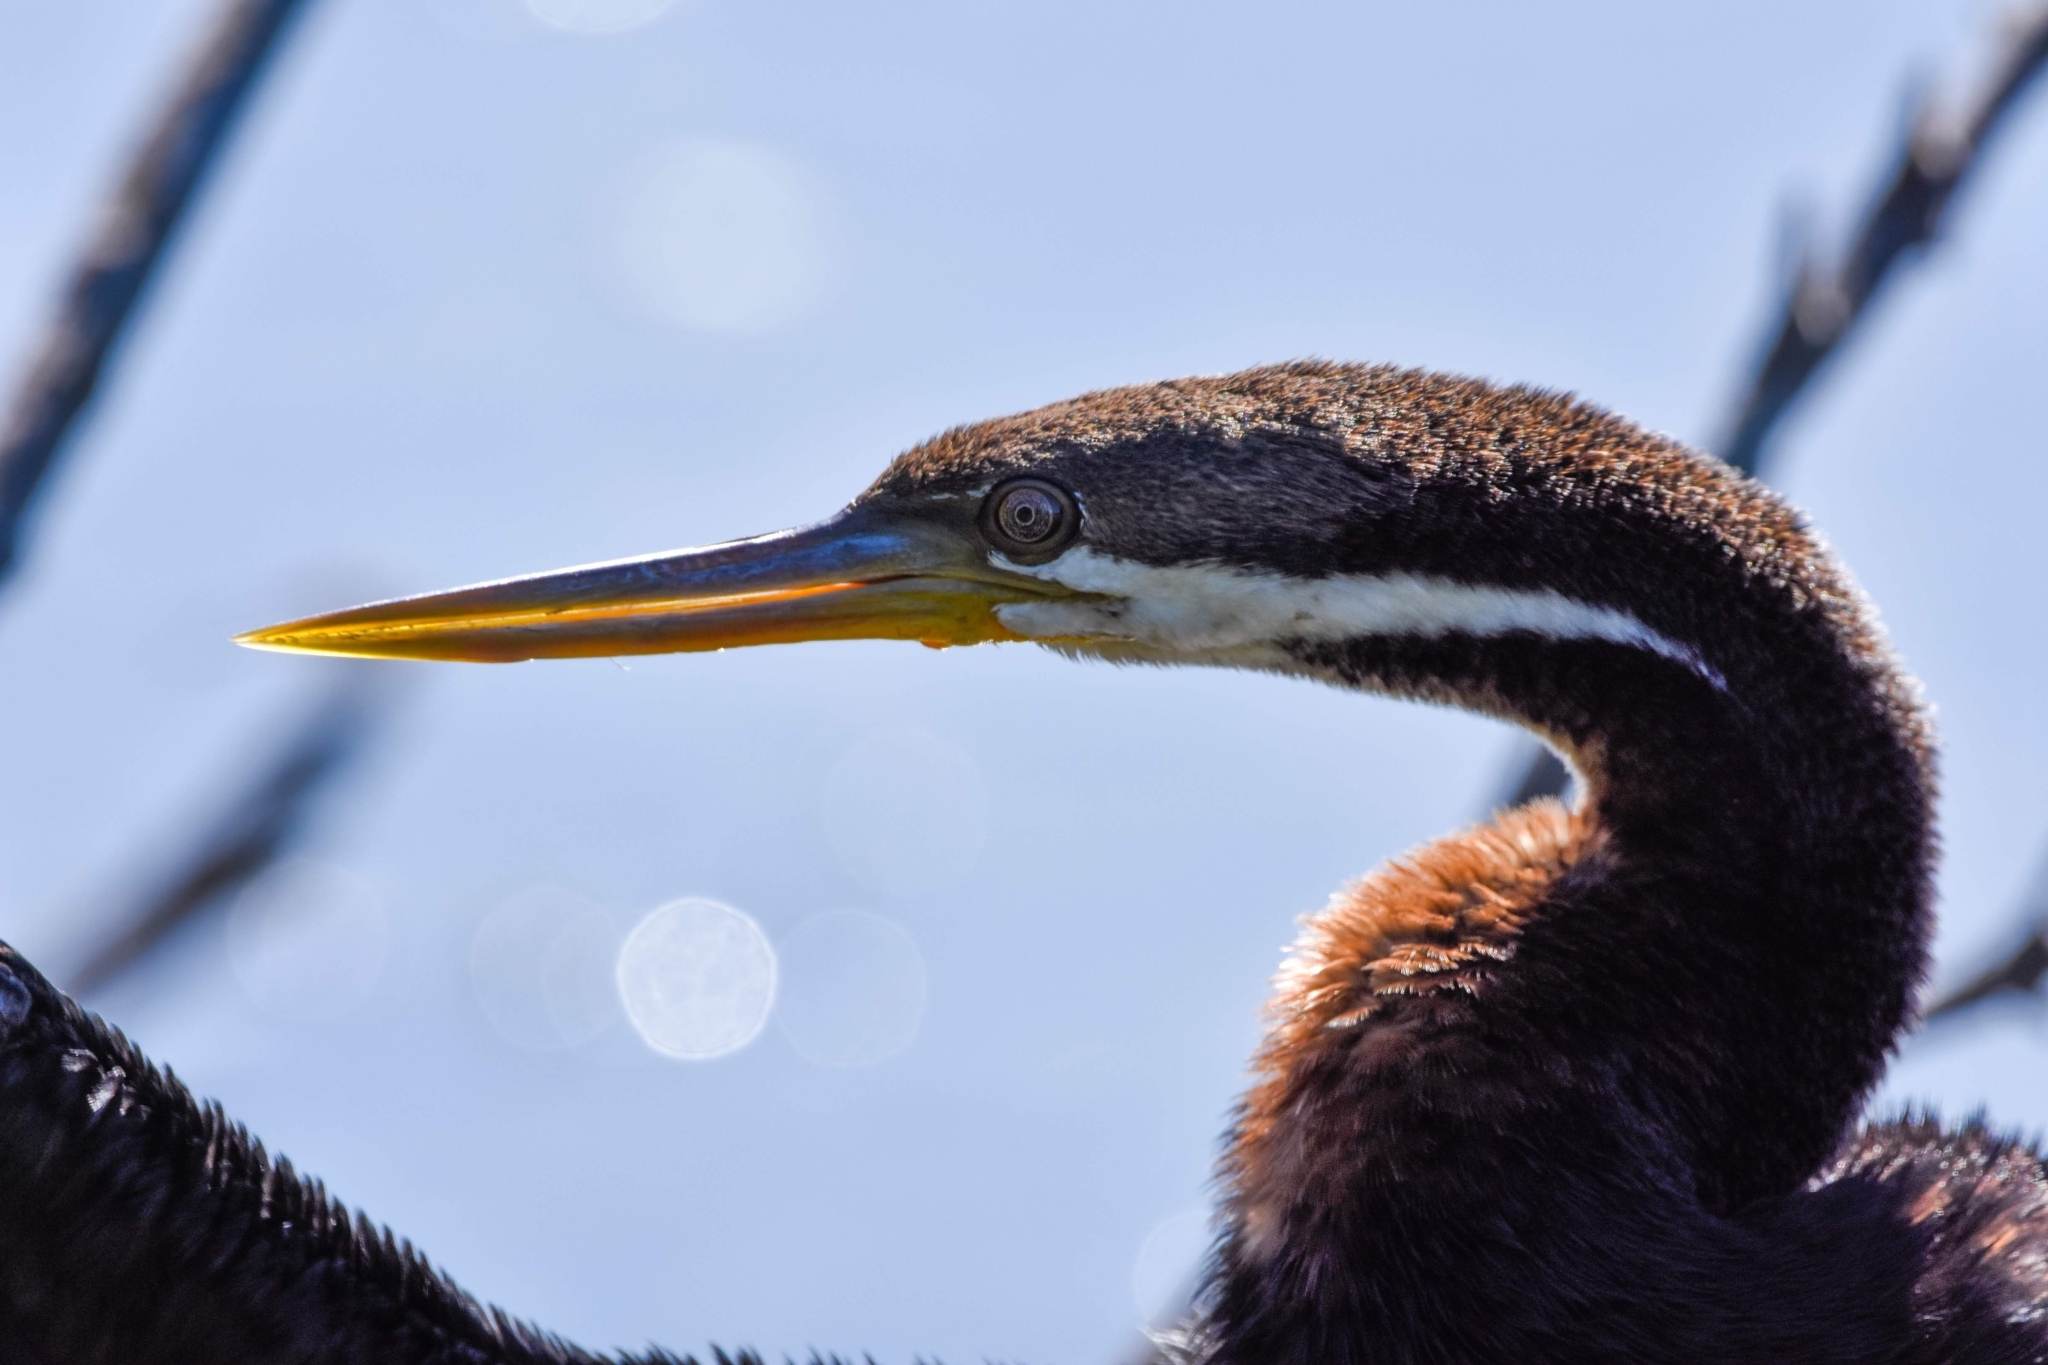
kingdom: Animalia
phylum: Chordata
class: Aves
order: Suliformes
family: Anhingidae
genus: Anhinga
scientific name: Anhinga novaehollandiae
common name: Australasian darter
